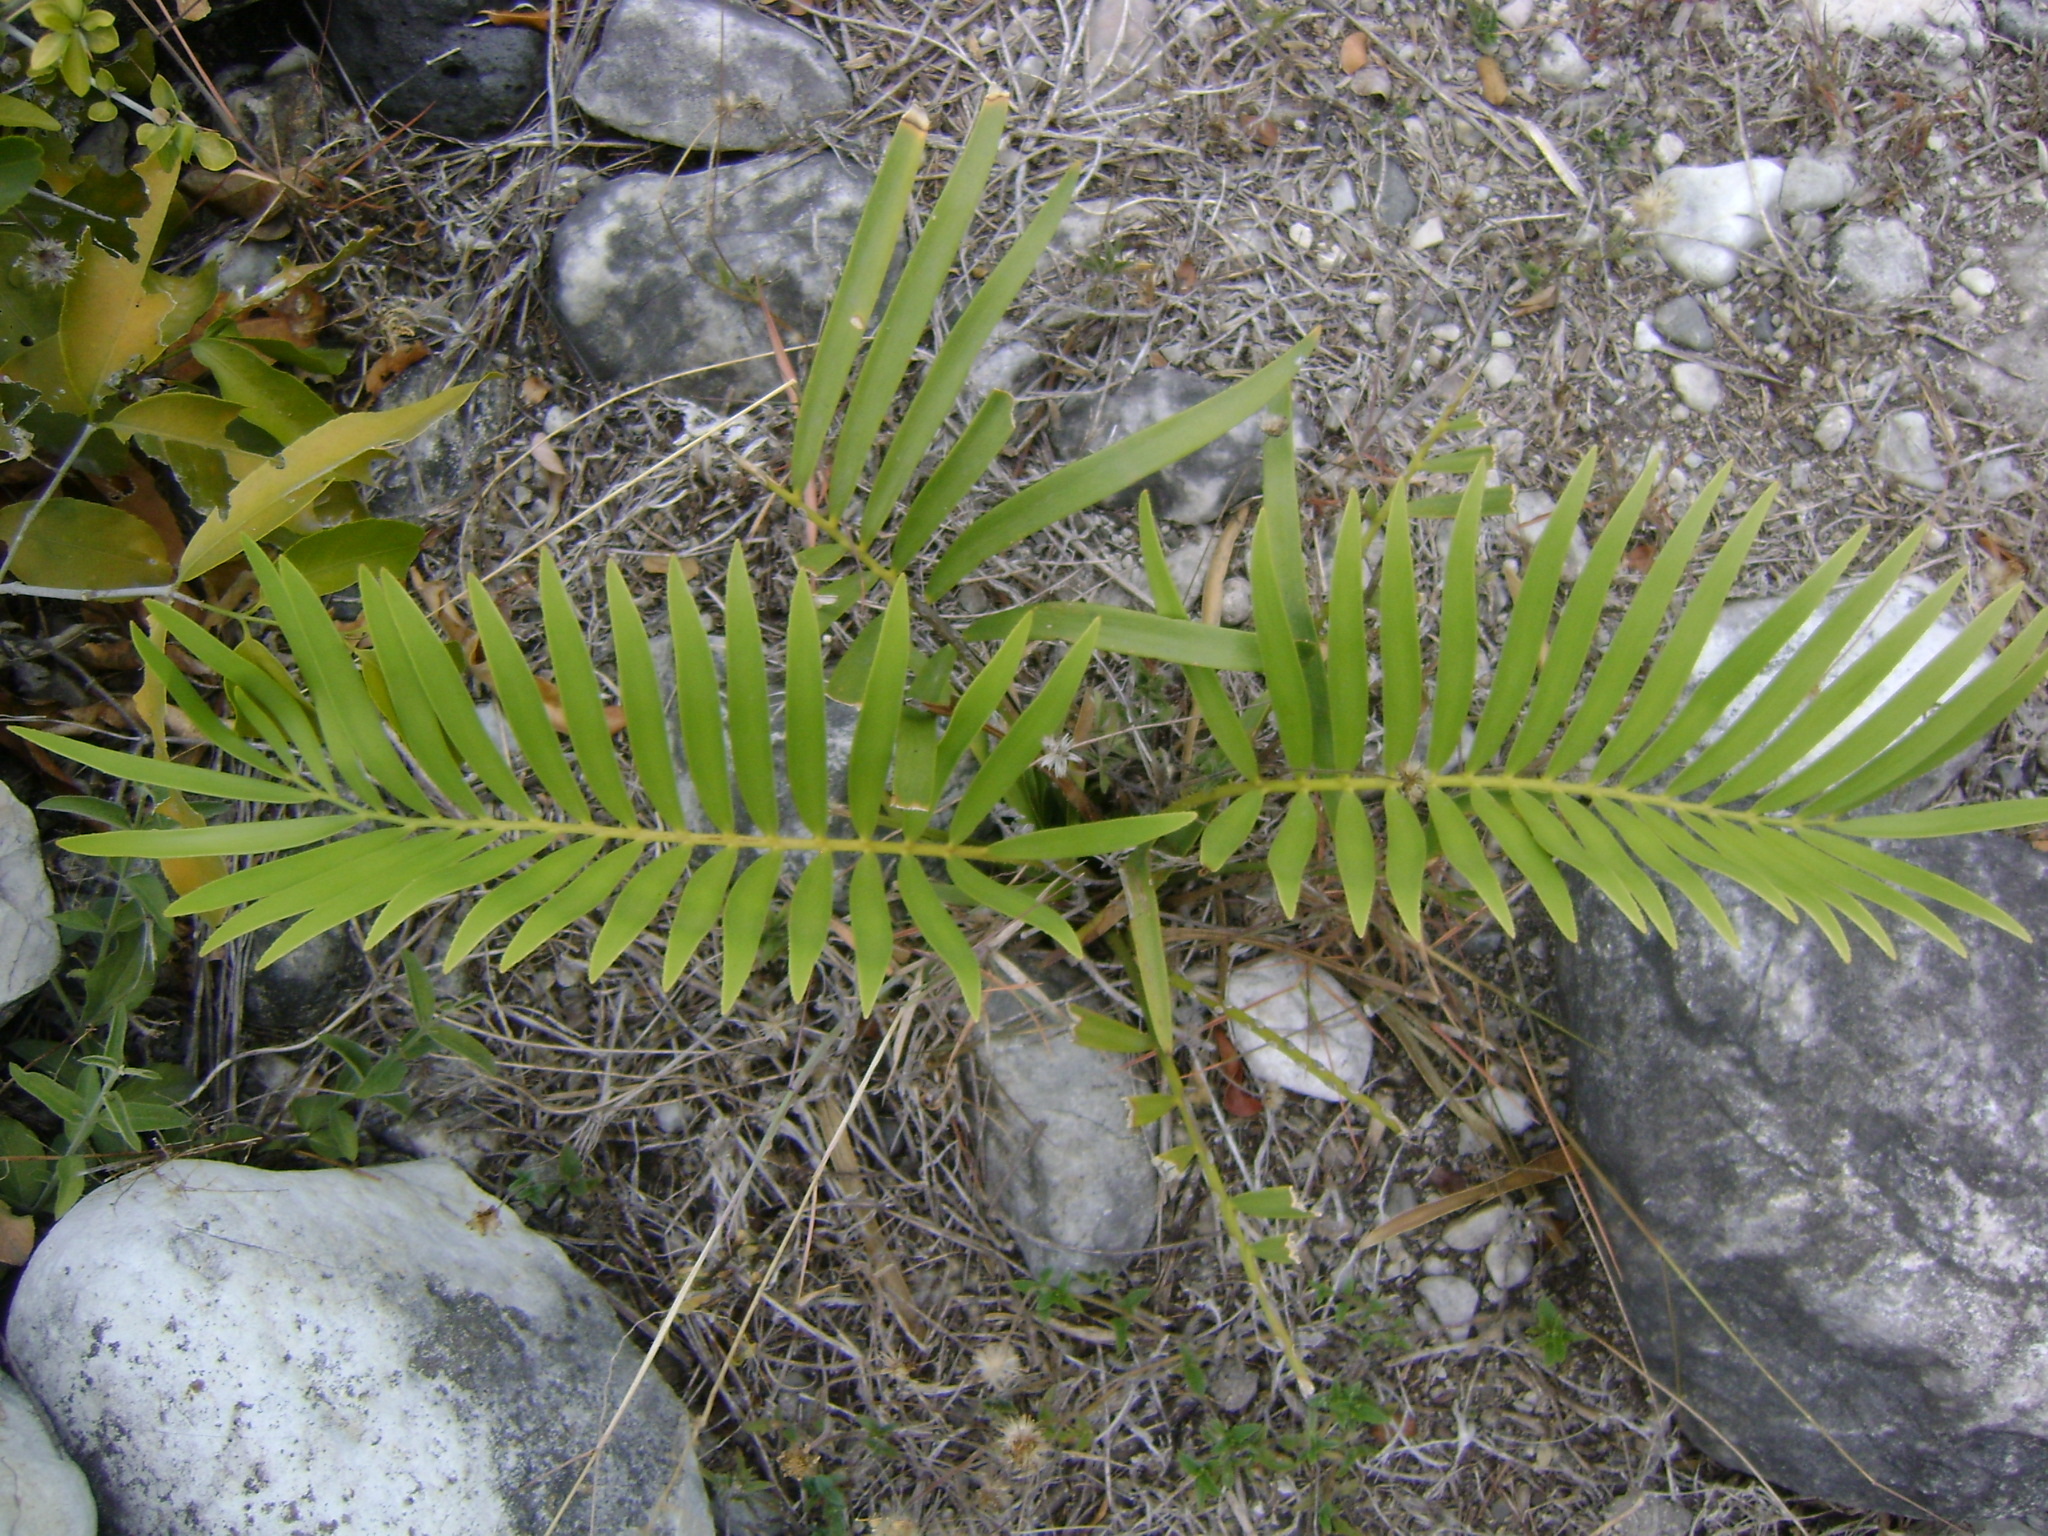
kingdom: Plantae
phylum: Tracheophyta
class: Cycadopsida
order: Cycadales
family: Zamiaceae
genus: Zamia
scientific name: Zamia loddigesii
